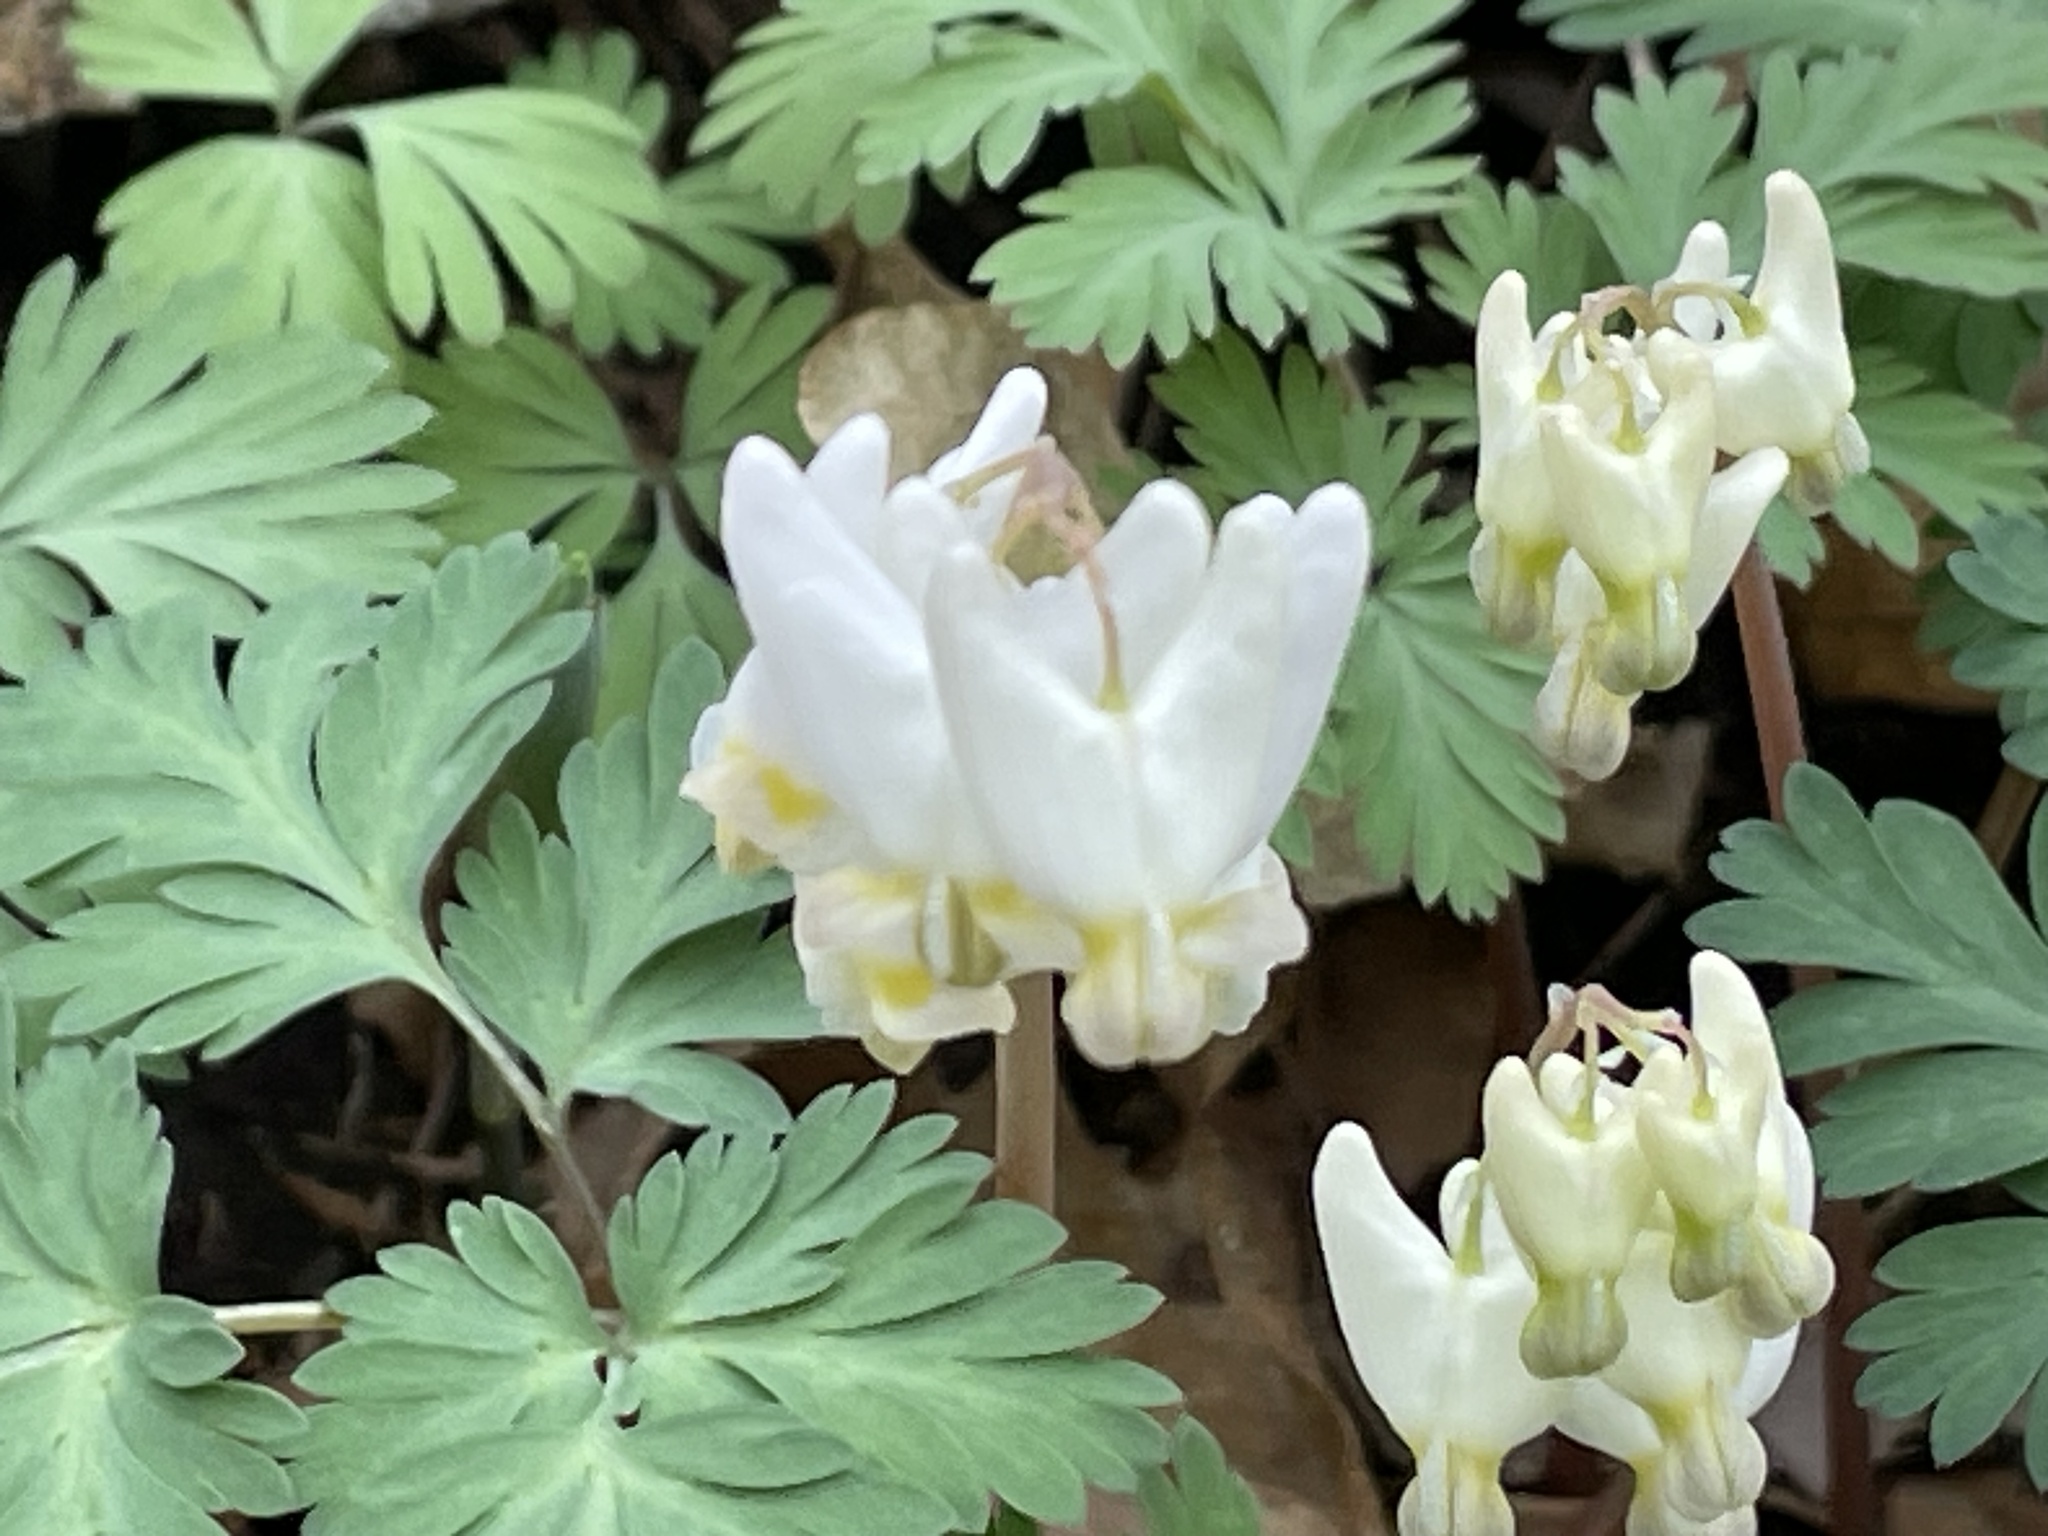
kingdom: Plantae
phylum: Tracheophyta
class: Magnoliopsida
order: Ranunculales
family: Papaveraceae
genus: Dicentra
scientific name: Dicentra cucullaria
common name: Dutchman's breeches
